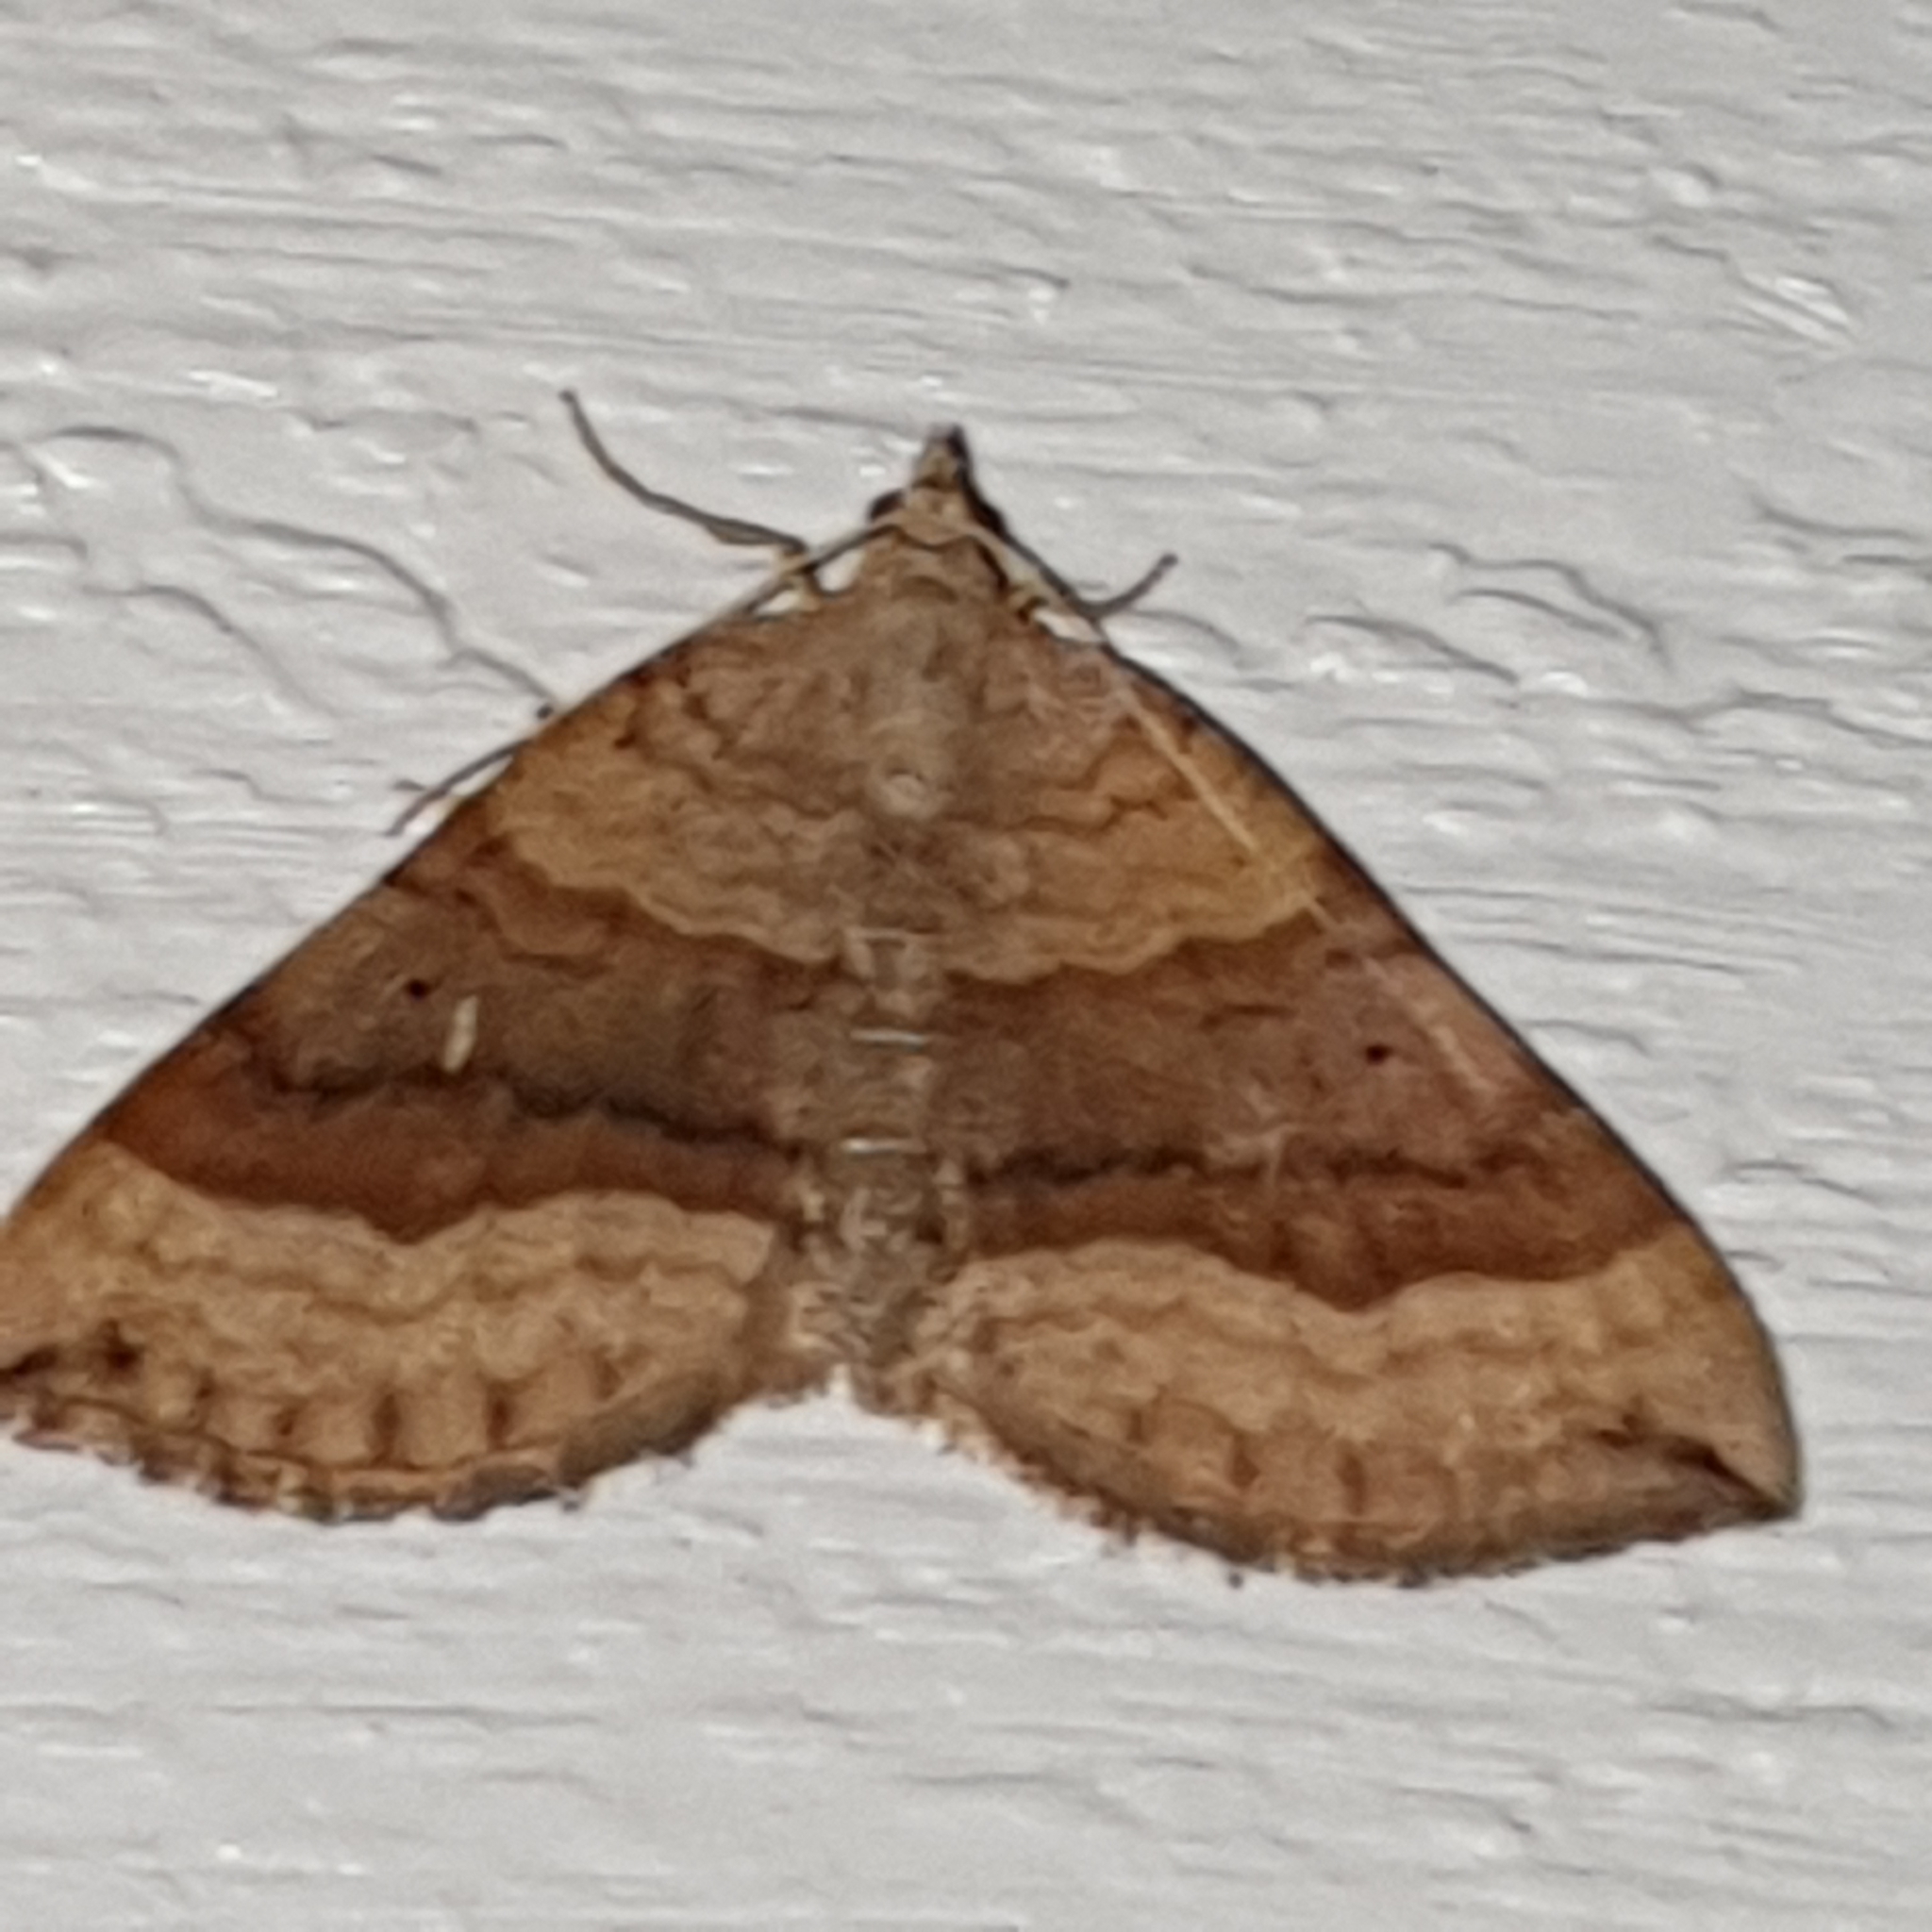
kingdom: Animalia
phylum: Arthropoda
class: Insecta
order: Lepidoptera
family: Geometridae
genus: Scotopteryx
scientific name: Scotopteryx chenopodiata
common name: Shaded broad-bar
